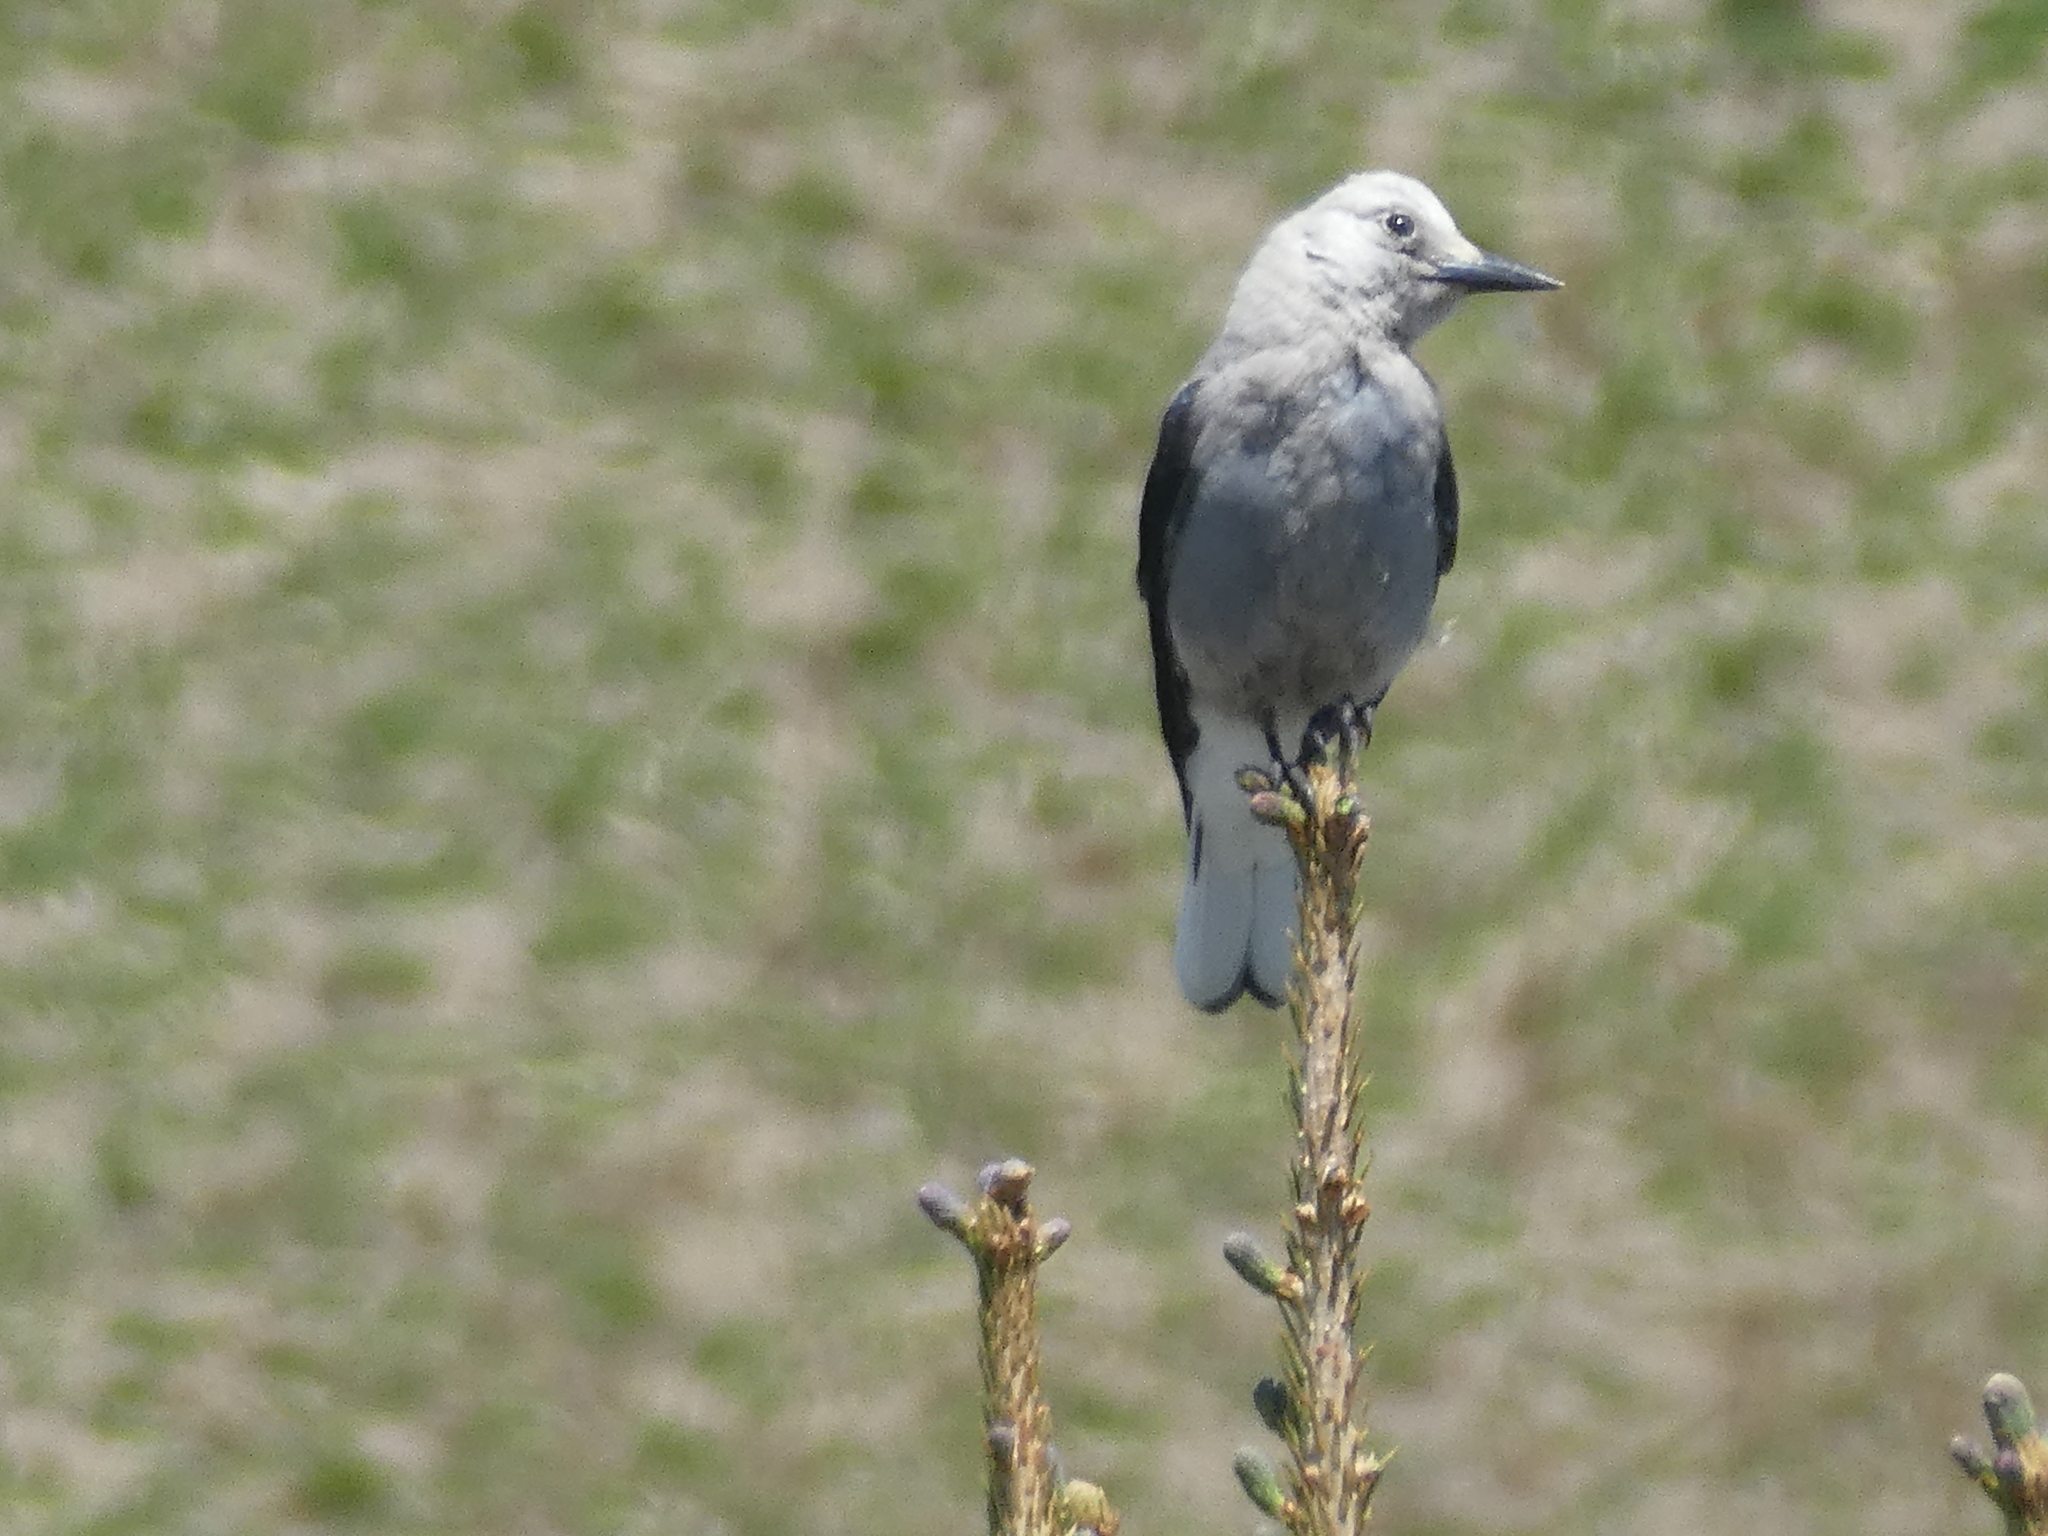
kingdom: Animalia
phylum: Chordata
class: Aves
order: Passeriformes
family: Corvidae
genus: Nucifraga
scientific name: Nucifraga columbiana
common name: Clark's nutcracker
